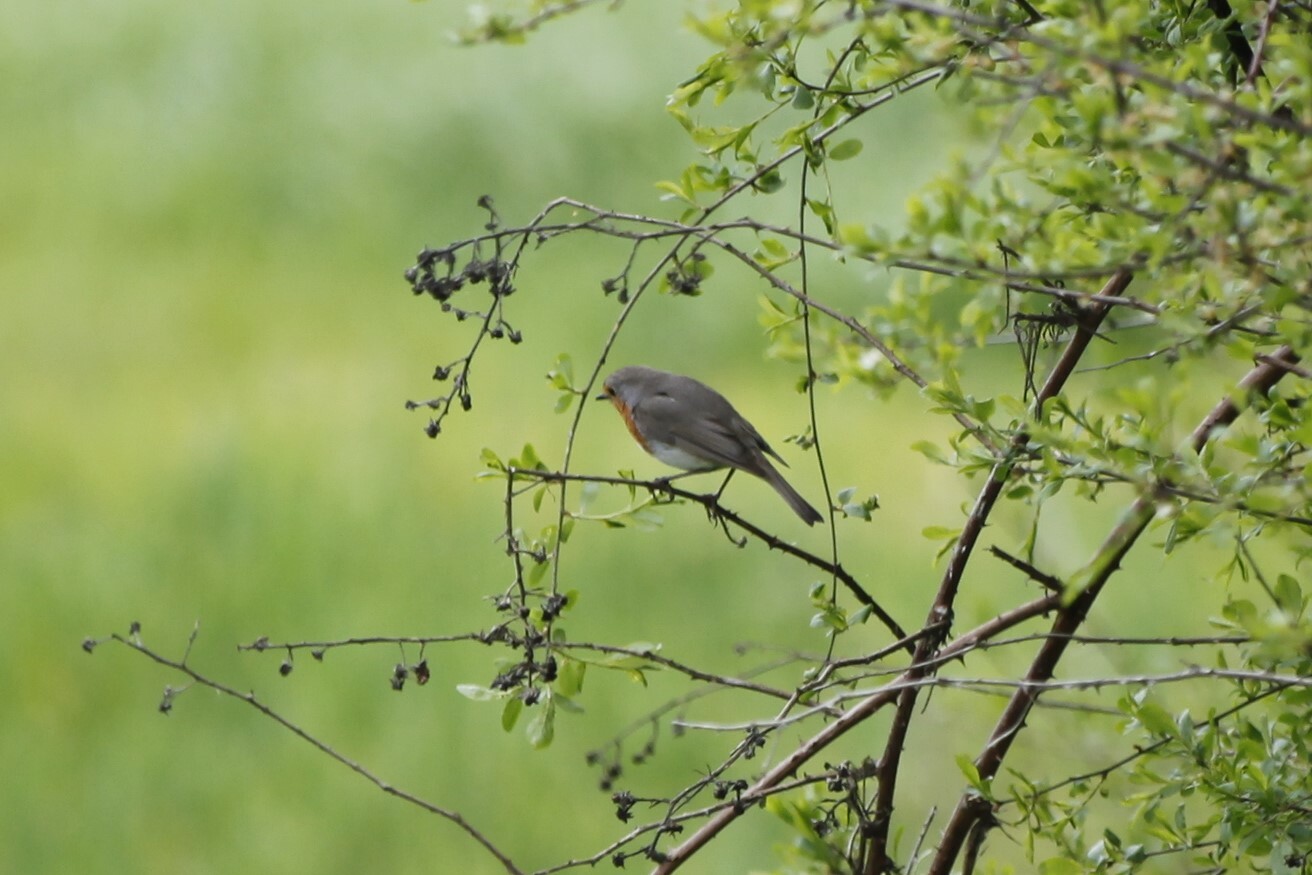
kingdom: Animalia
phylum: Chordata
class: Aves
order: Passeriformes
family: Muscicapidae
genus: Erithacus
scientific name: Erithacus rubecula
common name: European robin
